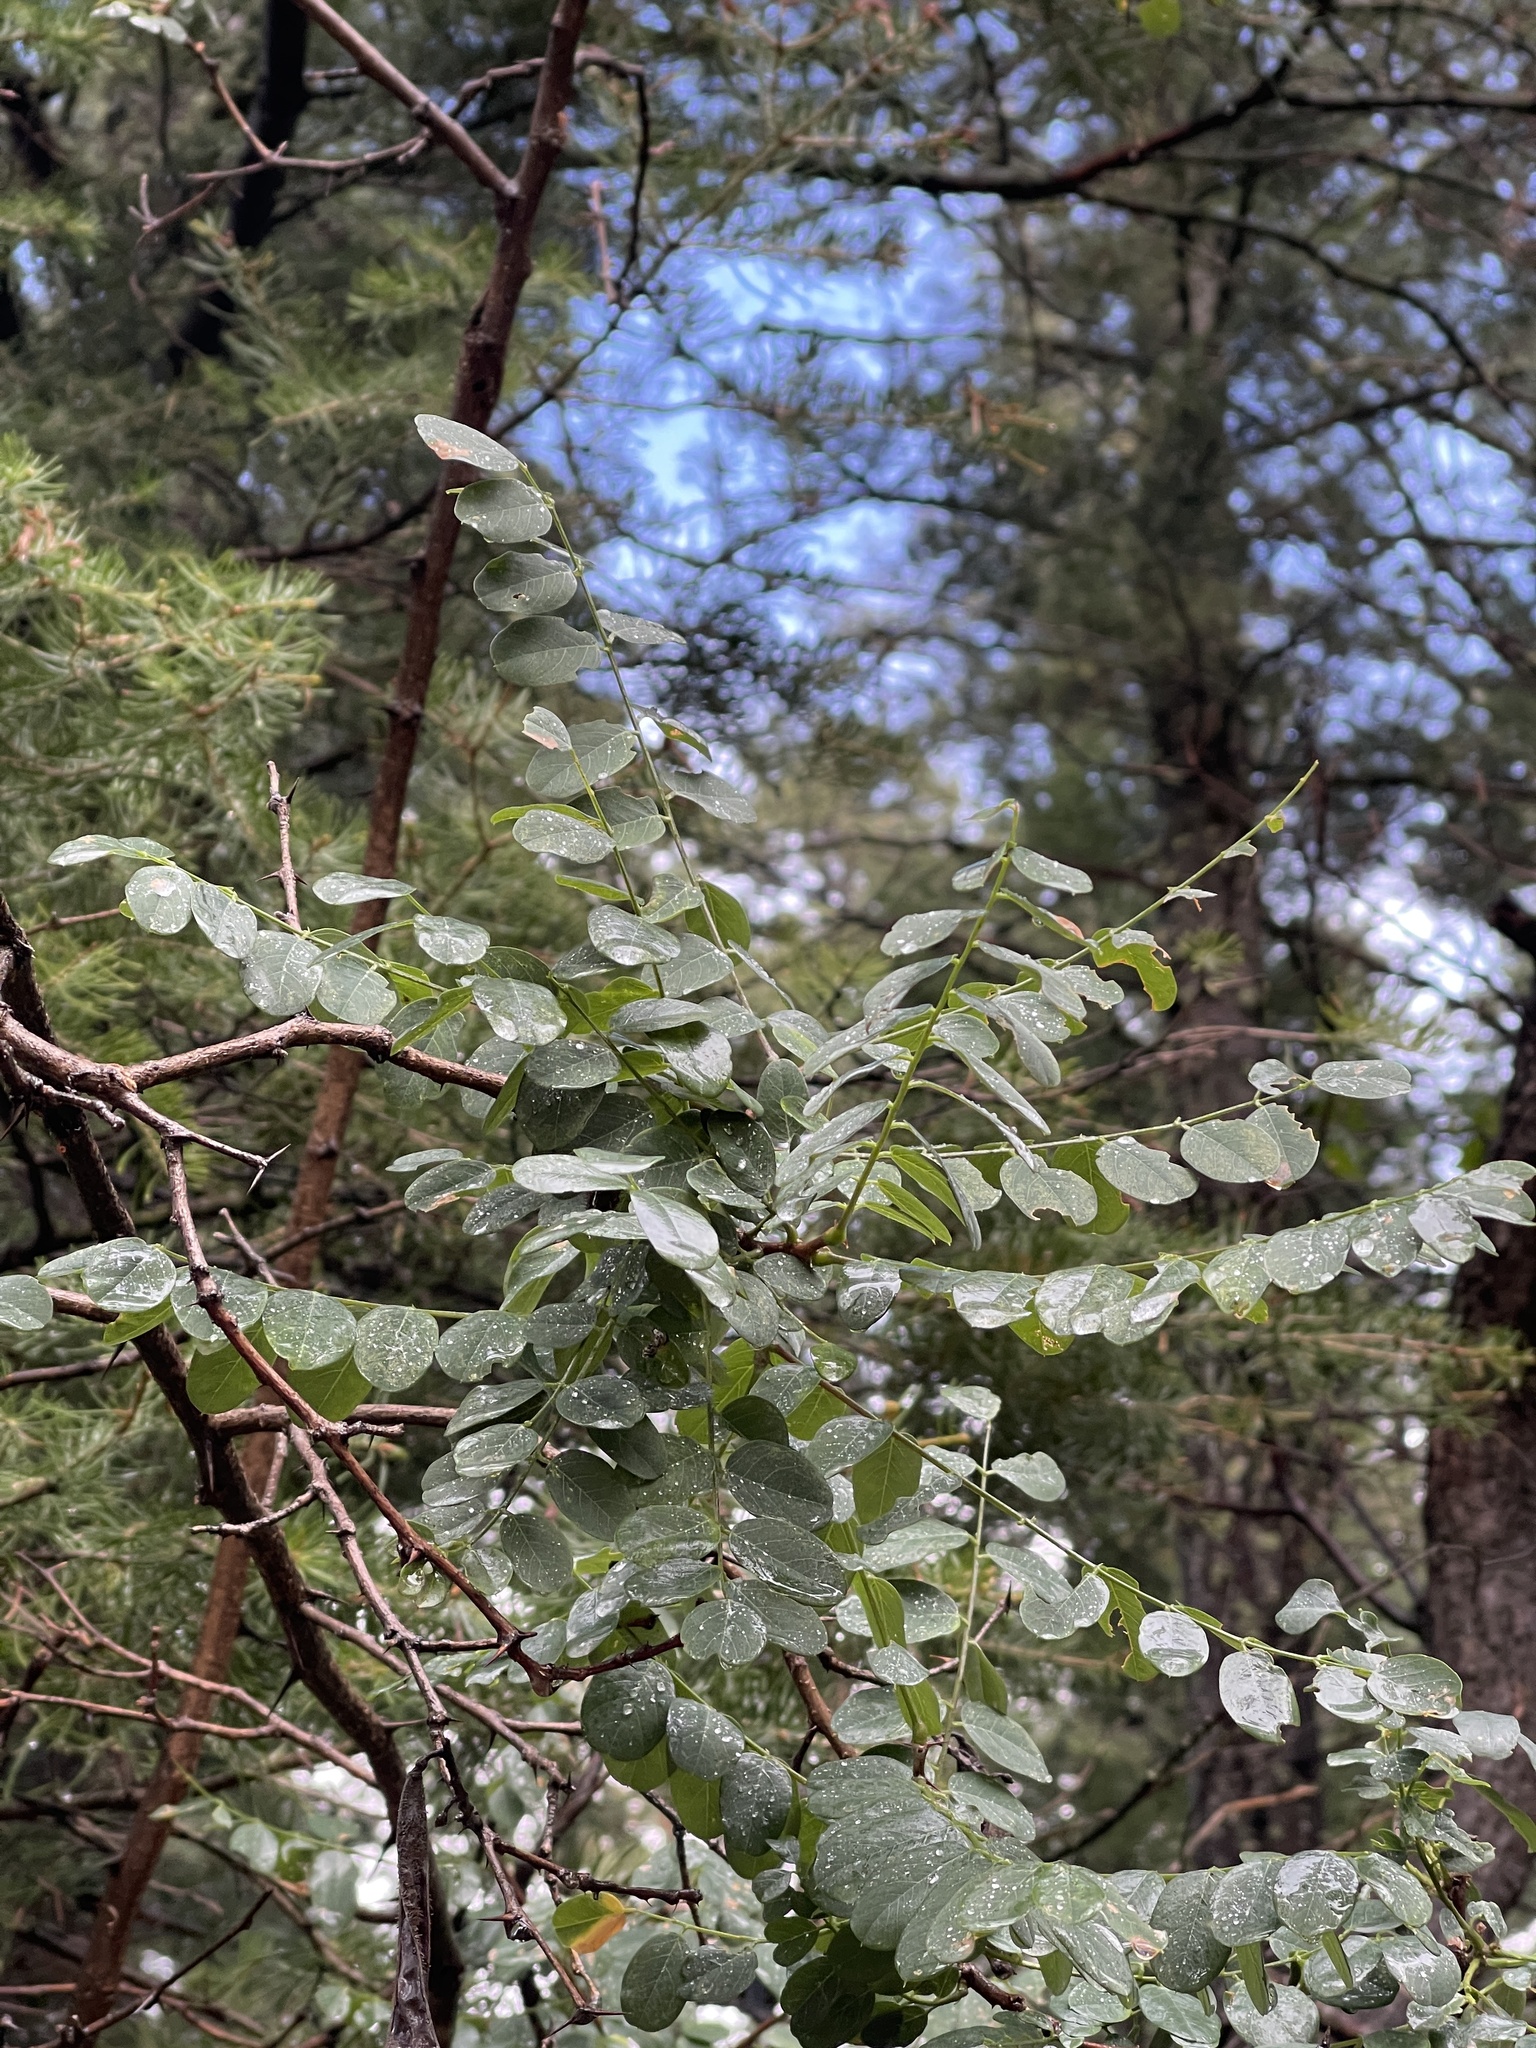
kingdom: Plantae
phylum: Tracheophyta
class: Magnoliopsida
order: Fabales
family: Fabaceae
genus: Robinia
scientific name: Robinia neomexicana
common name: New mexico locust
